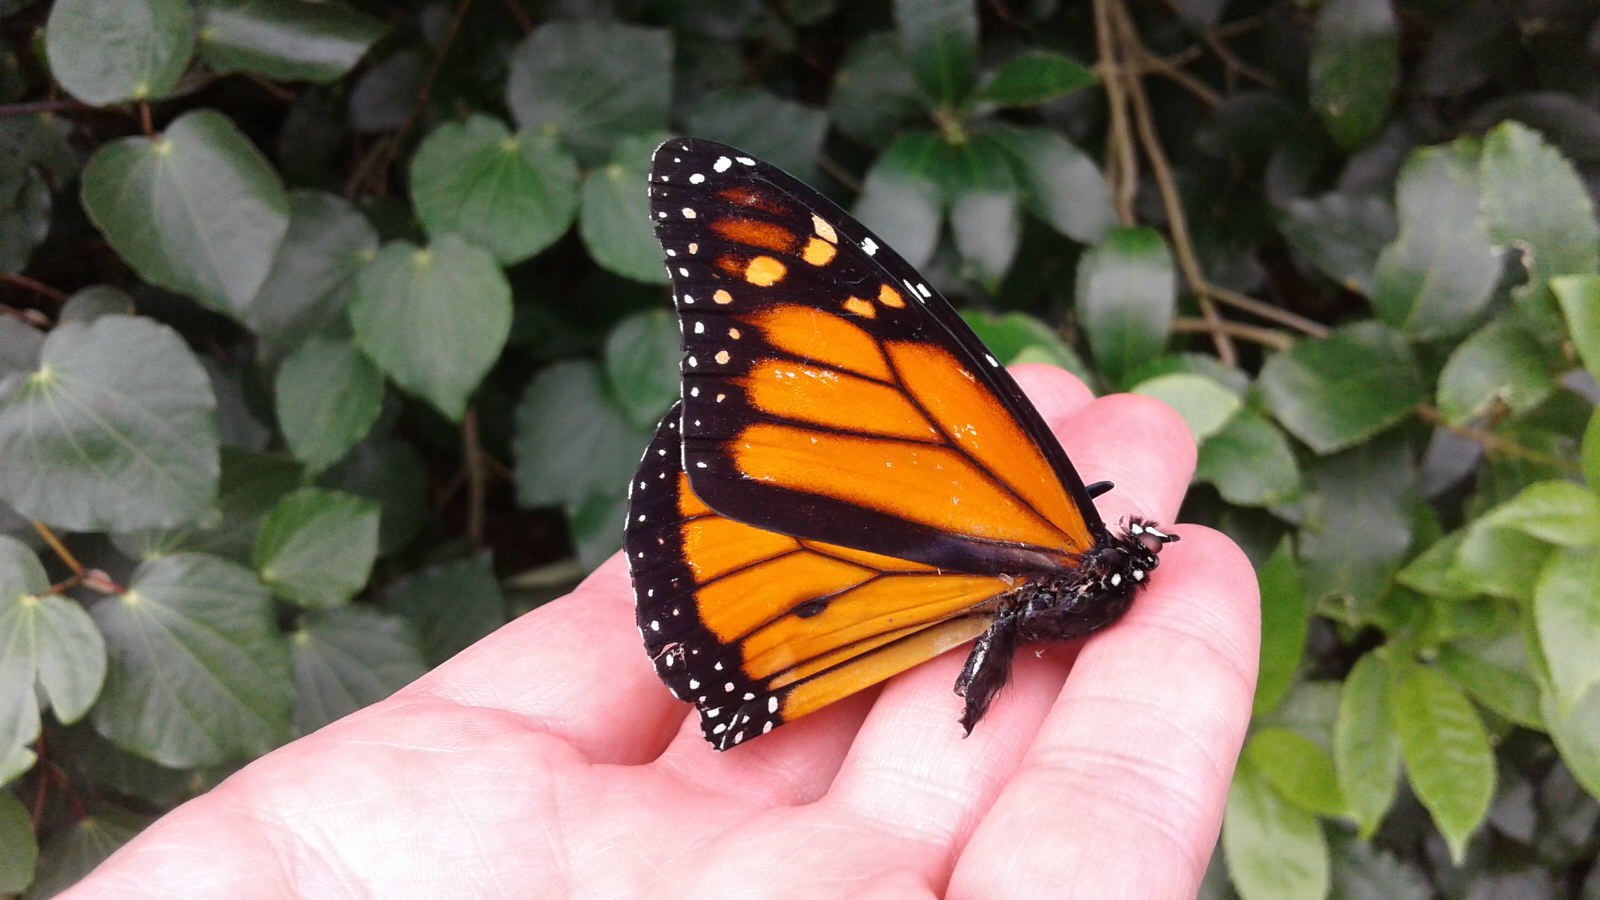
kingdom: Animalia
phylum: Arthropoda
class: Insecta
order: Lepidoptera
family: Nymphalidae
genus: Danaus
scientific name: Danaus plexippus
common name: Monarch
